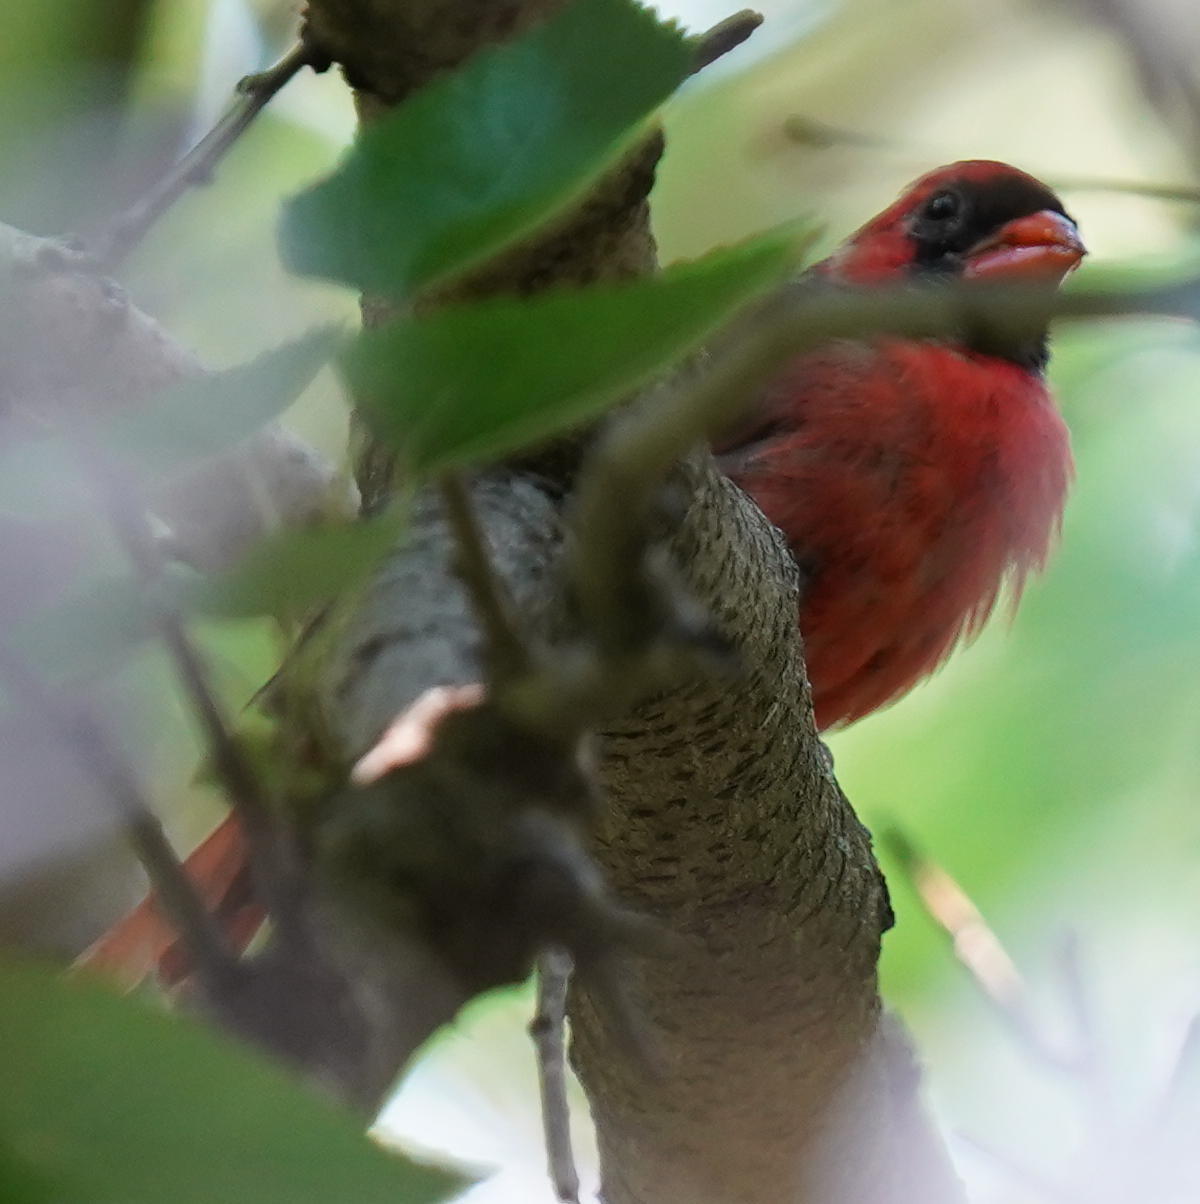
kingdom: Animalia
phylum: Chordata
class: Aves
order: Passeriformes
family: Cardinalidae
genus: Cardinalis
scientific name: Cardinalis cardinalis
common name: Northern cardinal
